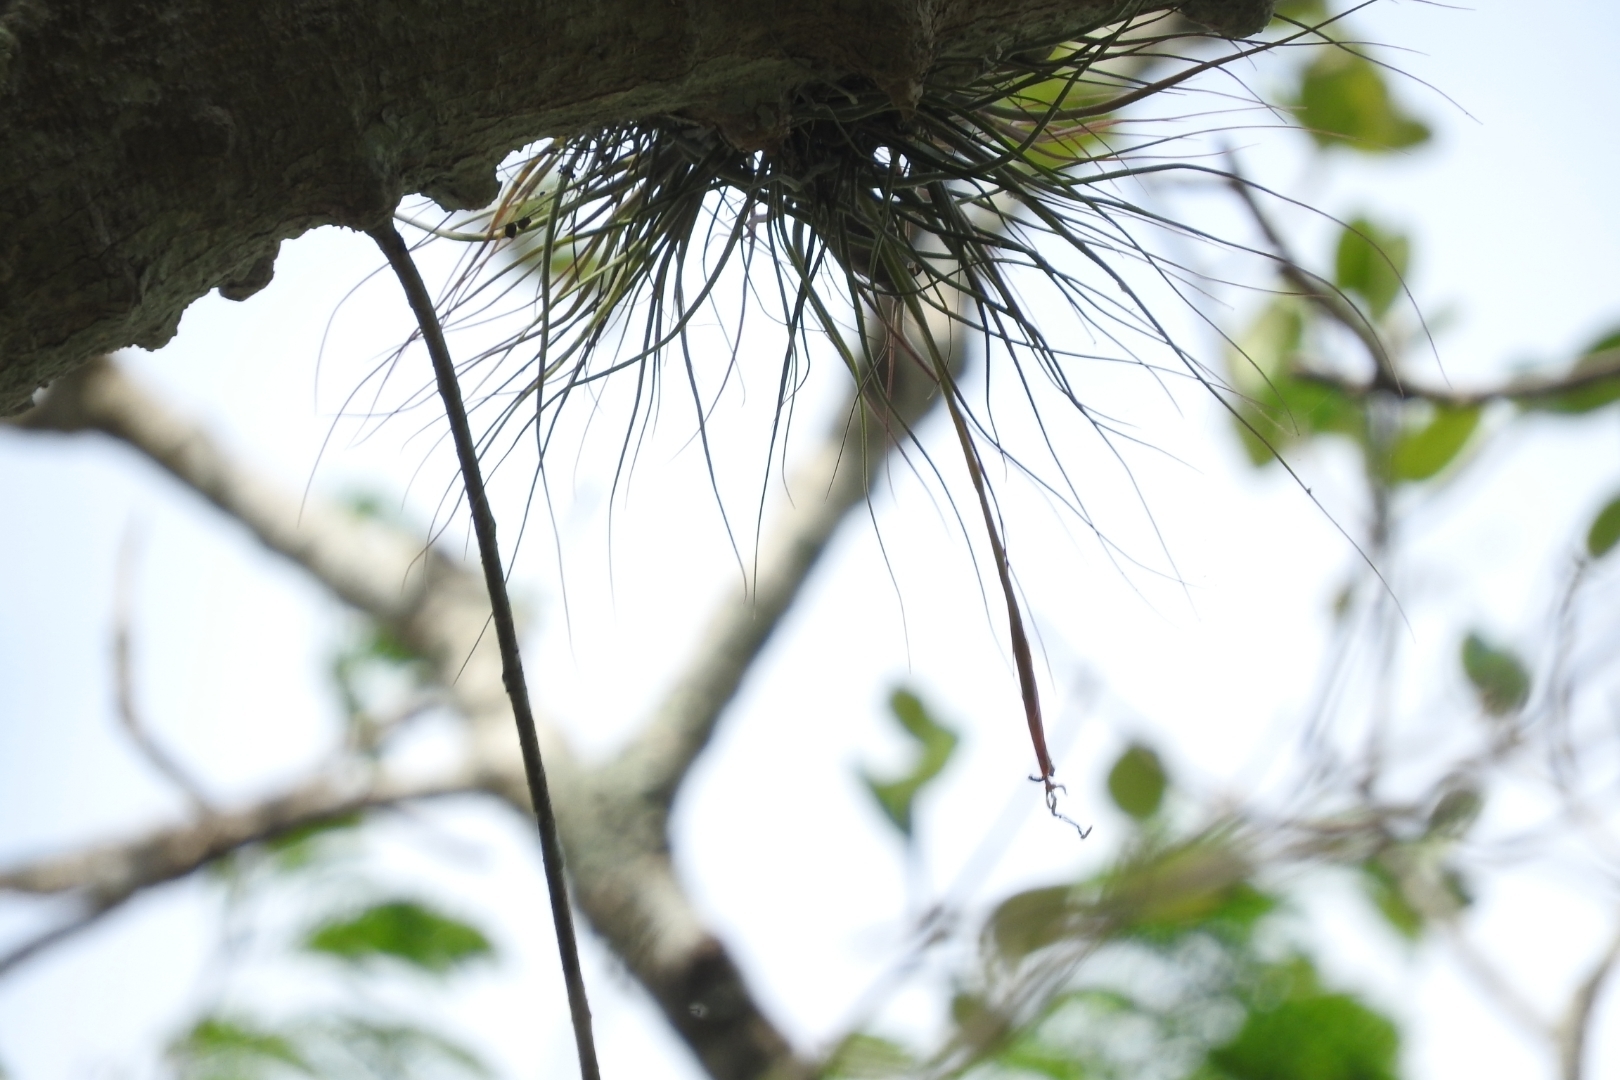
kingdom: Plantae
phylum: Tracheophyta
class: Liliopsida
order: Poales
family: Bromeliaceae
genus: Tillandsia
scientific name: Tillandsia schiedeana
